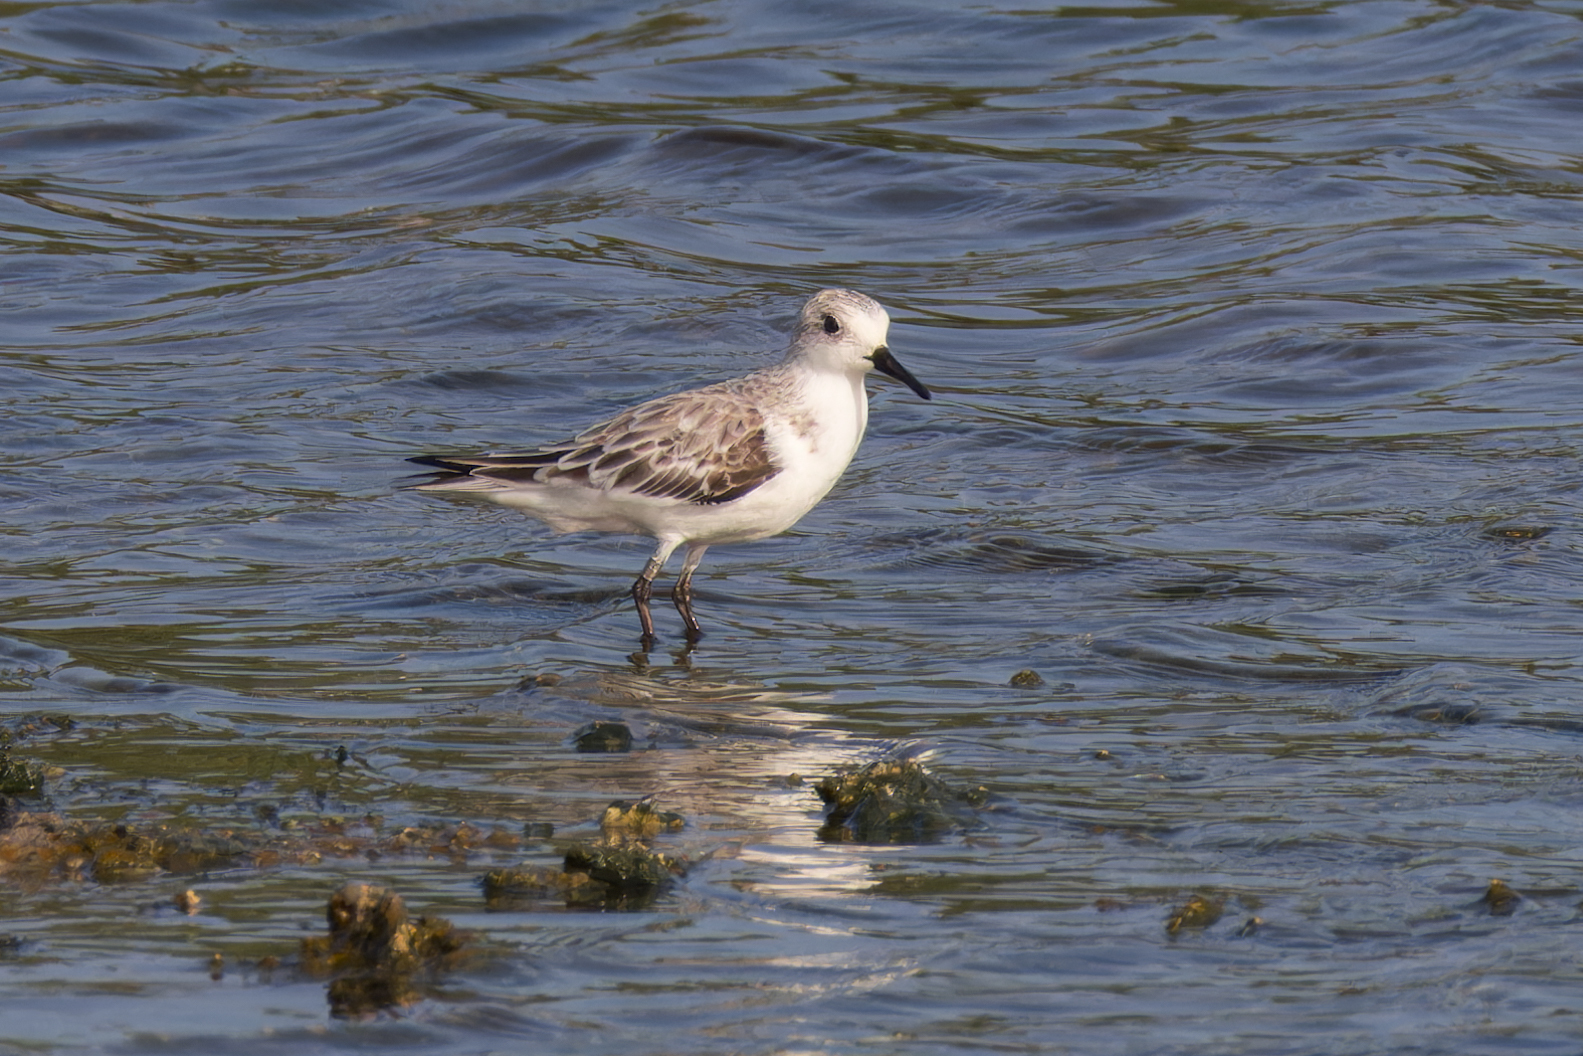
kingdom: Animalia
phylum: Chordata
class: Aves
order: Charadriiformes
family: Scolopacidae
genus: Calidris
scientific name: Calidris alba
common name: Sanderling
